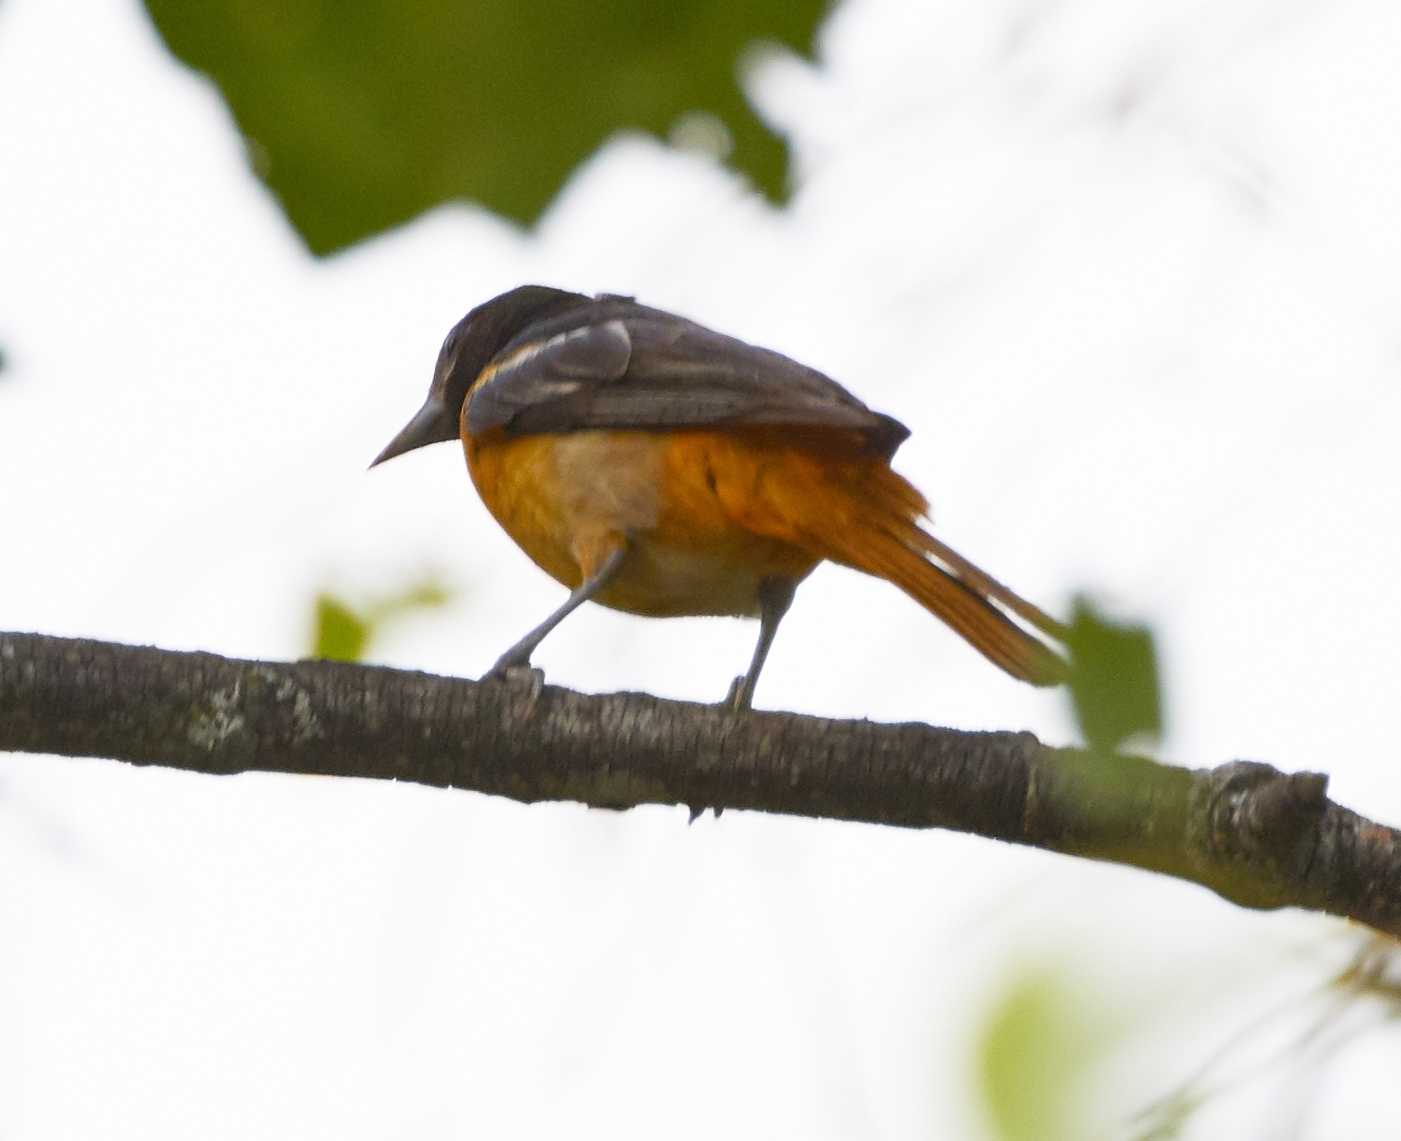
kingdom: Animalia
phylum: Chordata
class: Aves
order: Passeriformes
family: Icteridae
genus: Icterus
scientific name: Icterus galbula
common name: Baltimore oriole
